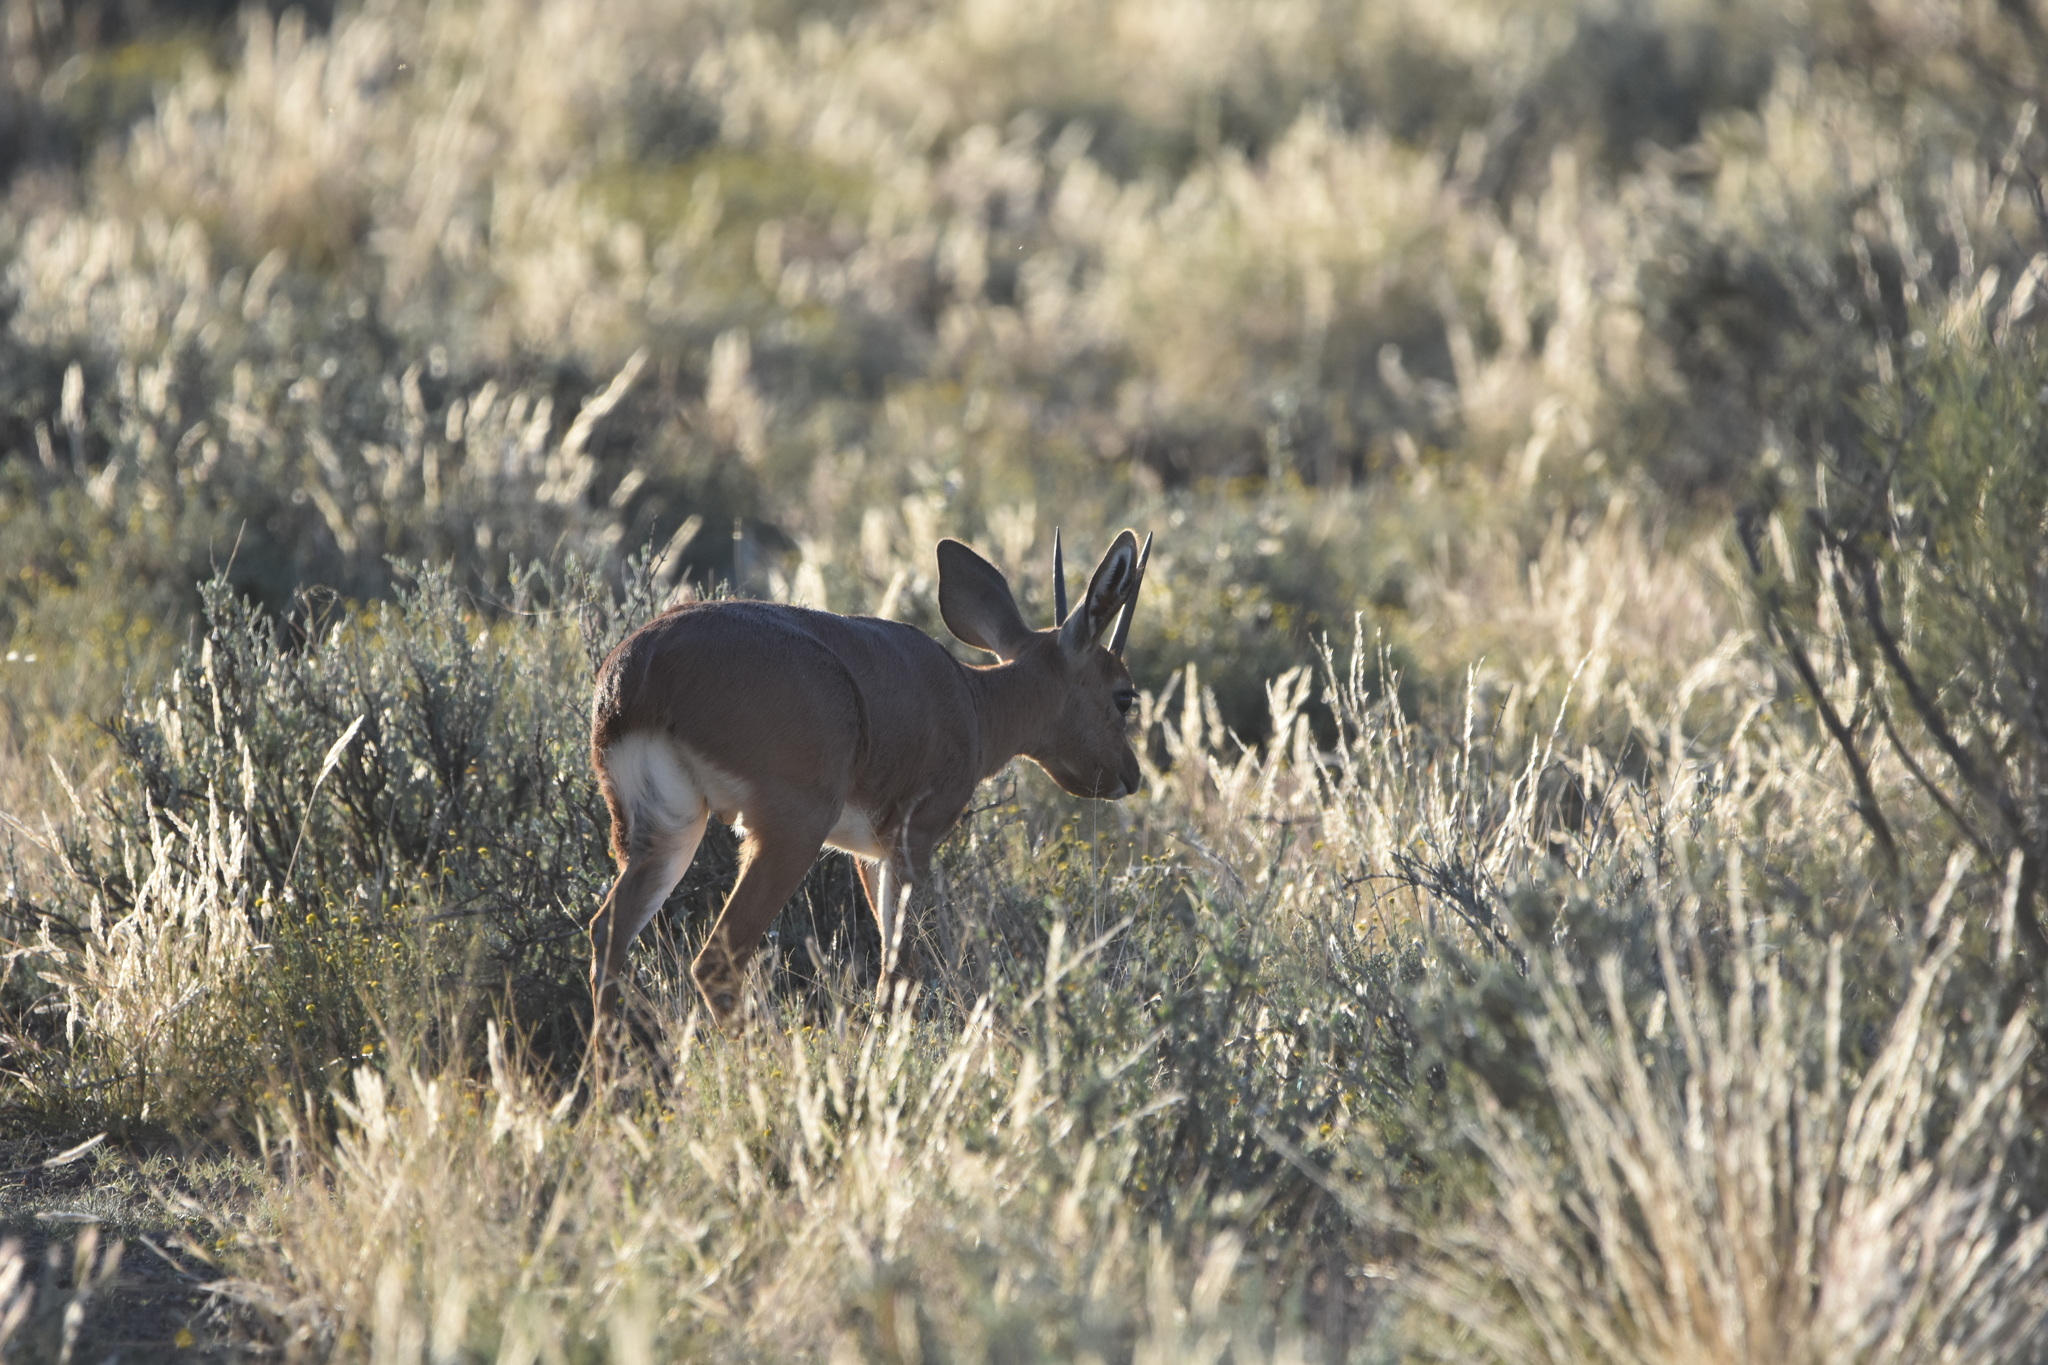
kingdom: Animalia
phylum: Chordata
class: Mammalia
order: Artiodactyla
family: Bovidae
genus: Raphicerus
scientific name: Raphicerus campestris
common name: Steenbok
